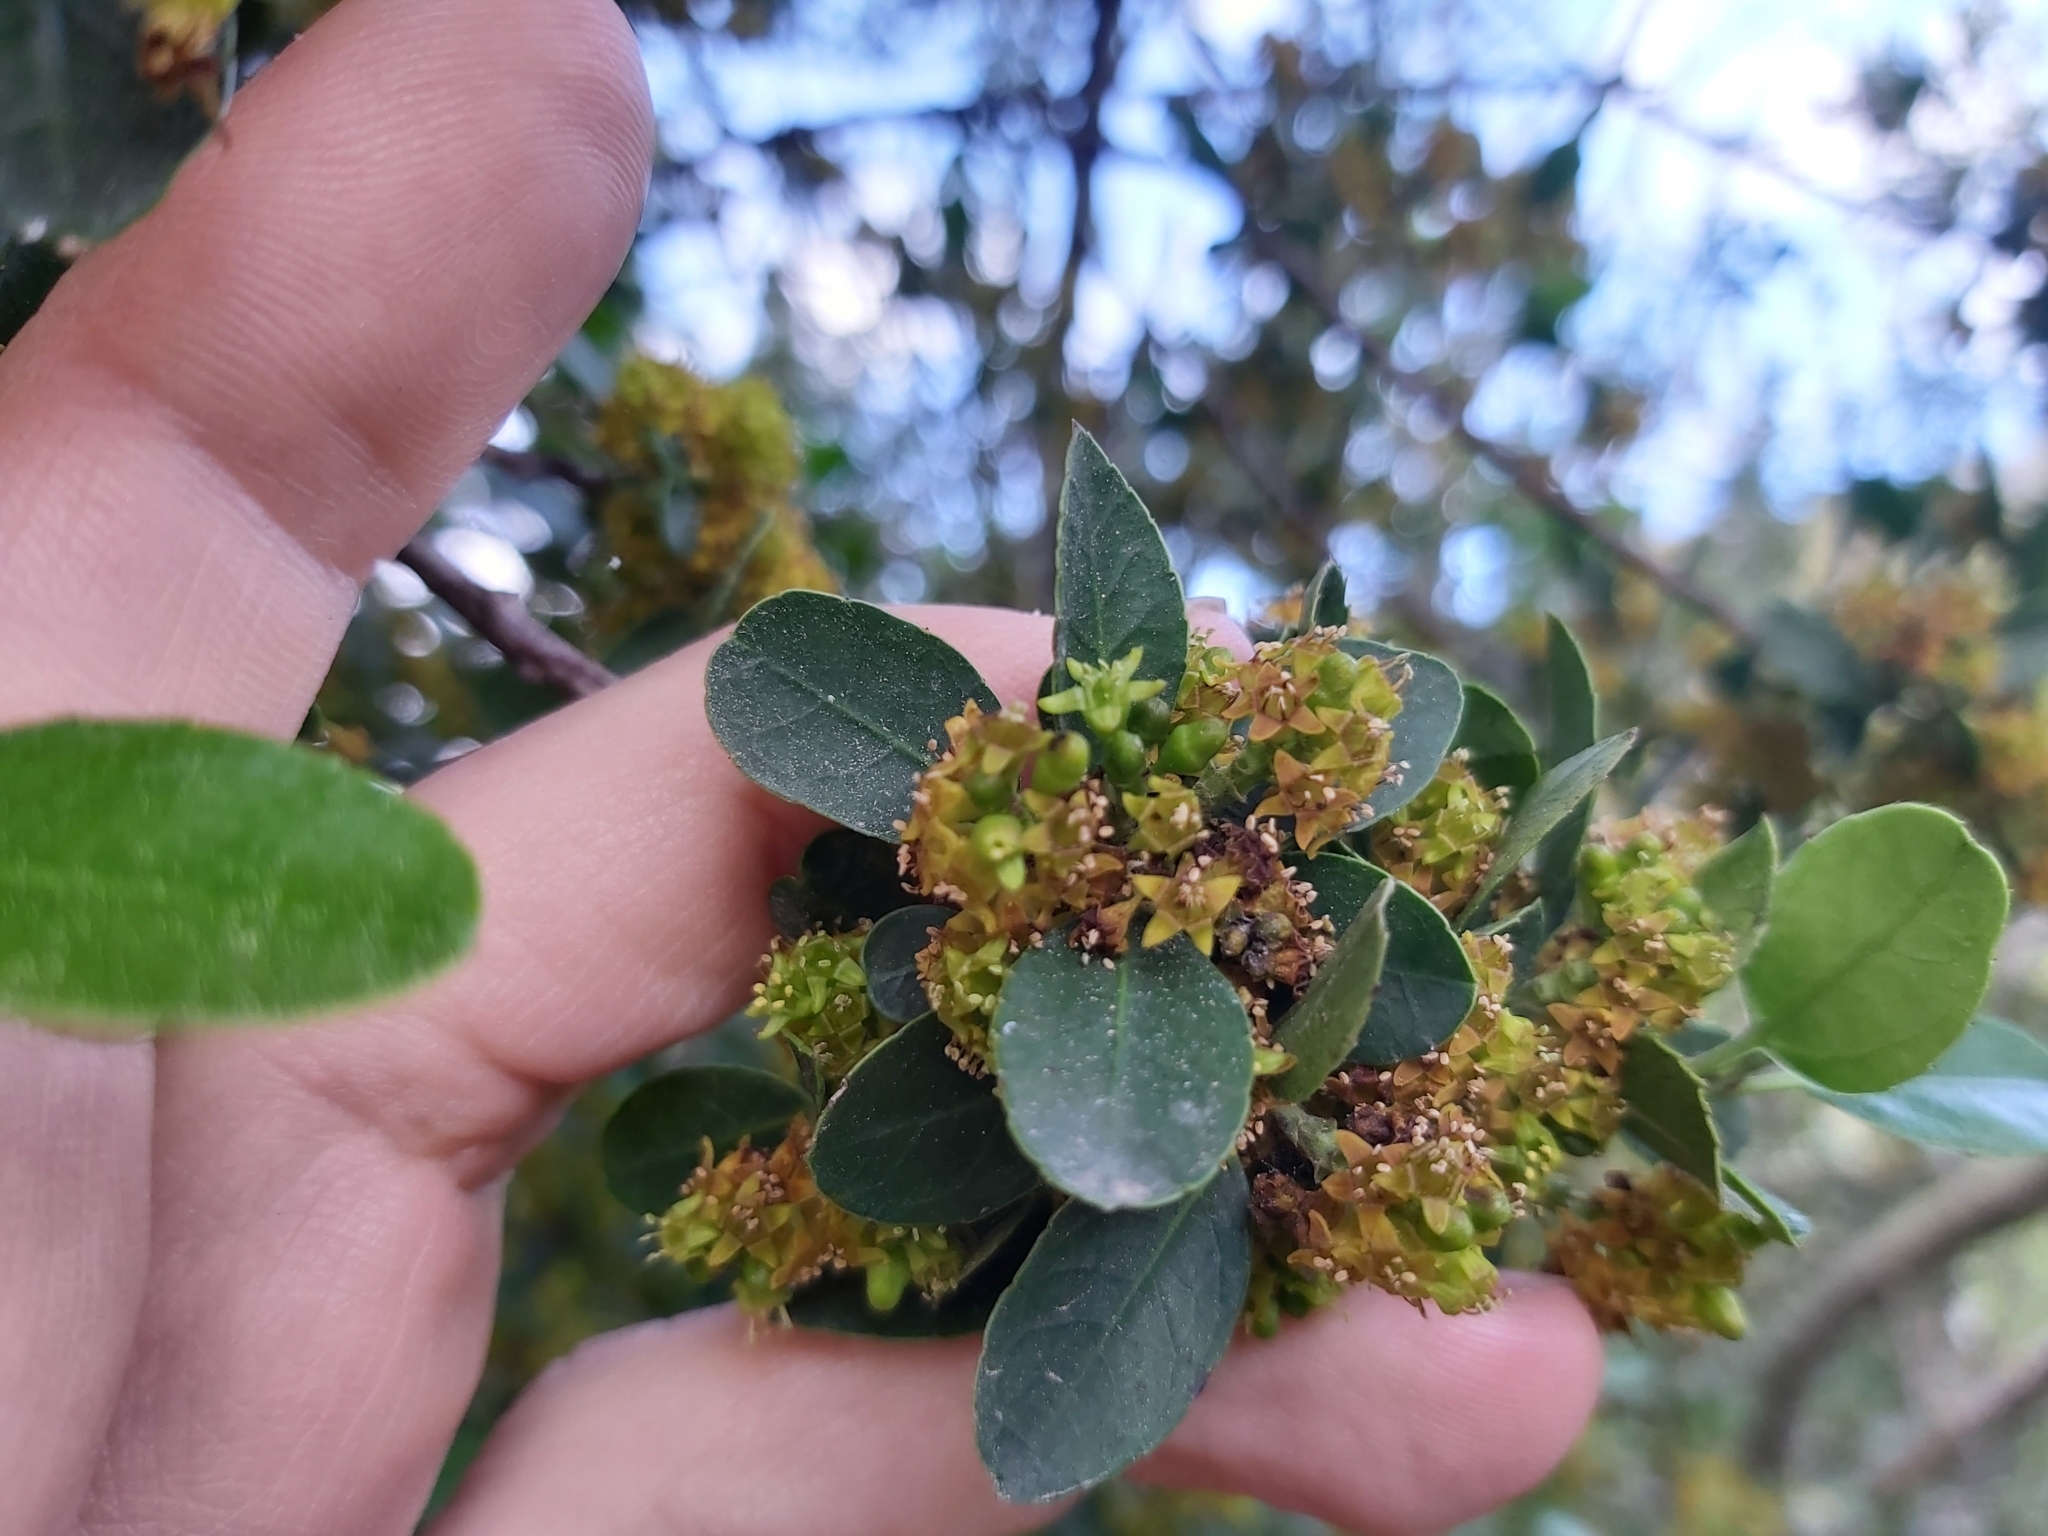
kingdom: Plantae
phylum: Tracheophyta
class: Magnoliopsida
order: Rosales
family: Rhamnaceae
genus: Rhamnus
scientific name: Rhamnus alaternus
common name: Mediterranean buckthorn
